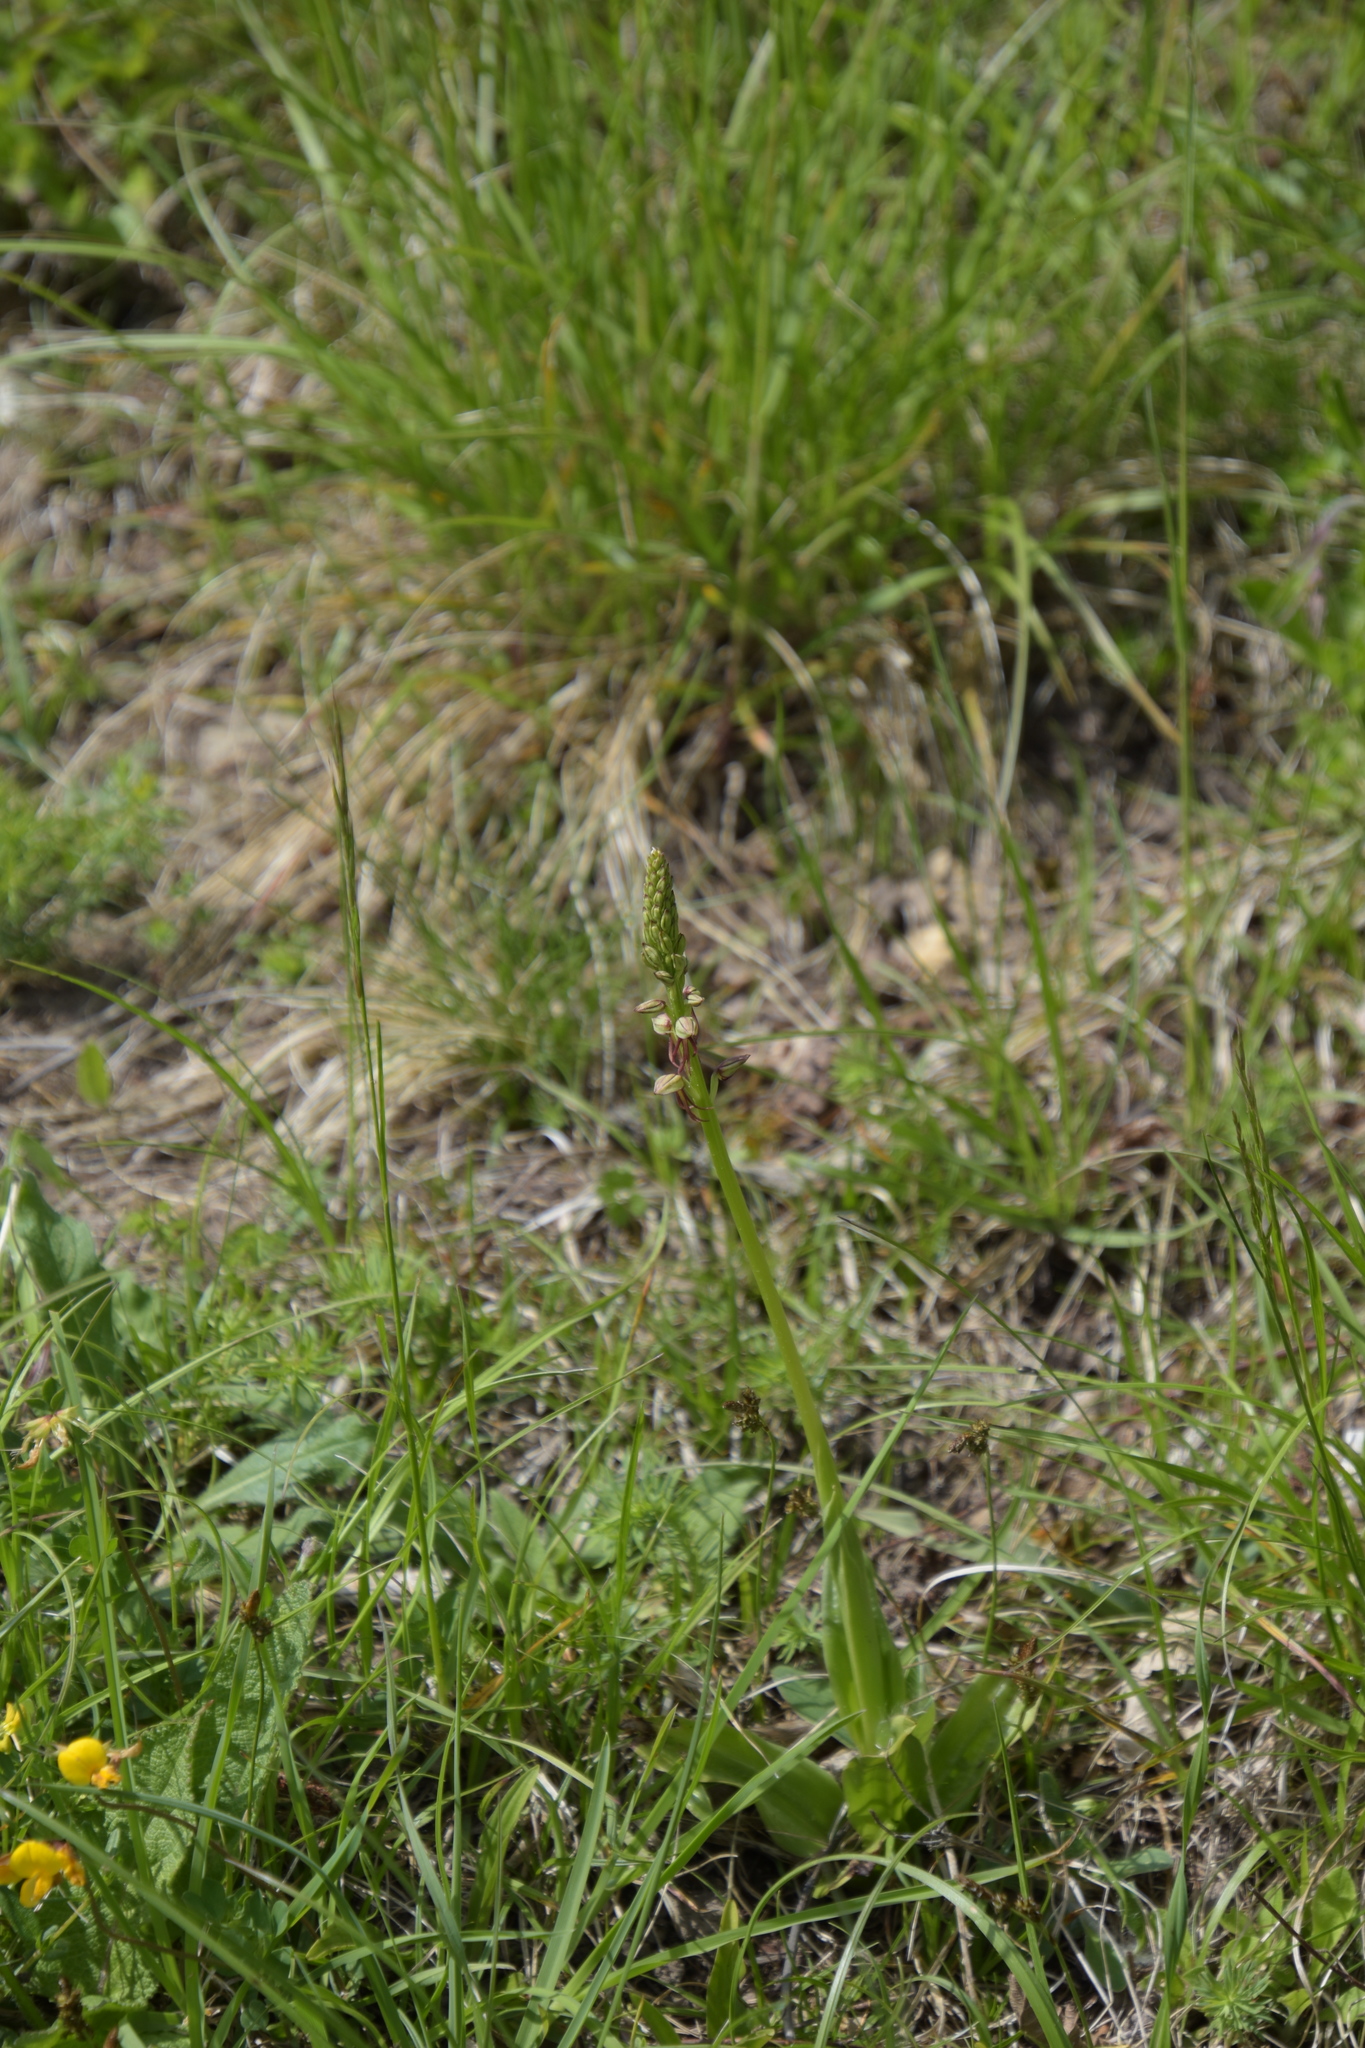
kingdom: Plantae
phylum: Tracheophyta
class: Liliopsida
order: Asparagales
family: Orchidaceae
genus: Orchis
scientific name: Orchis anthropophora
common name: Man orchid
